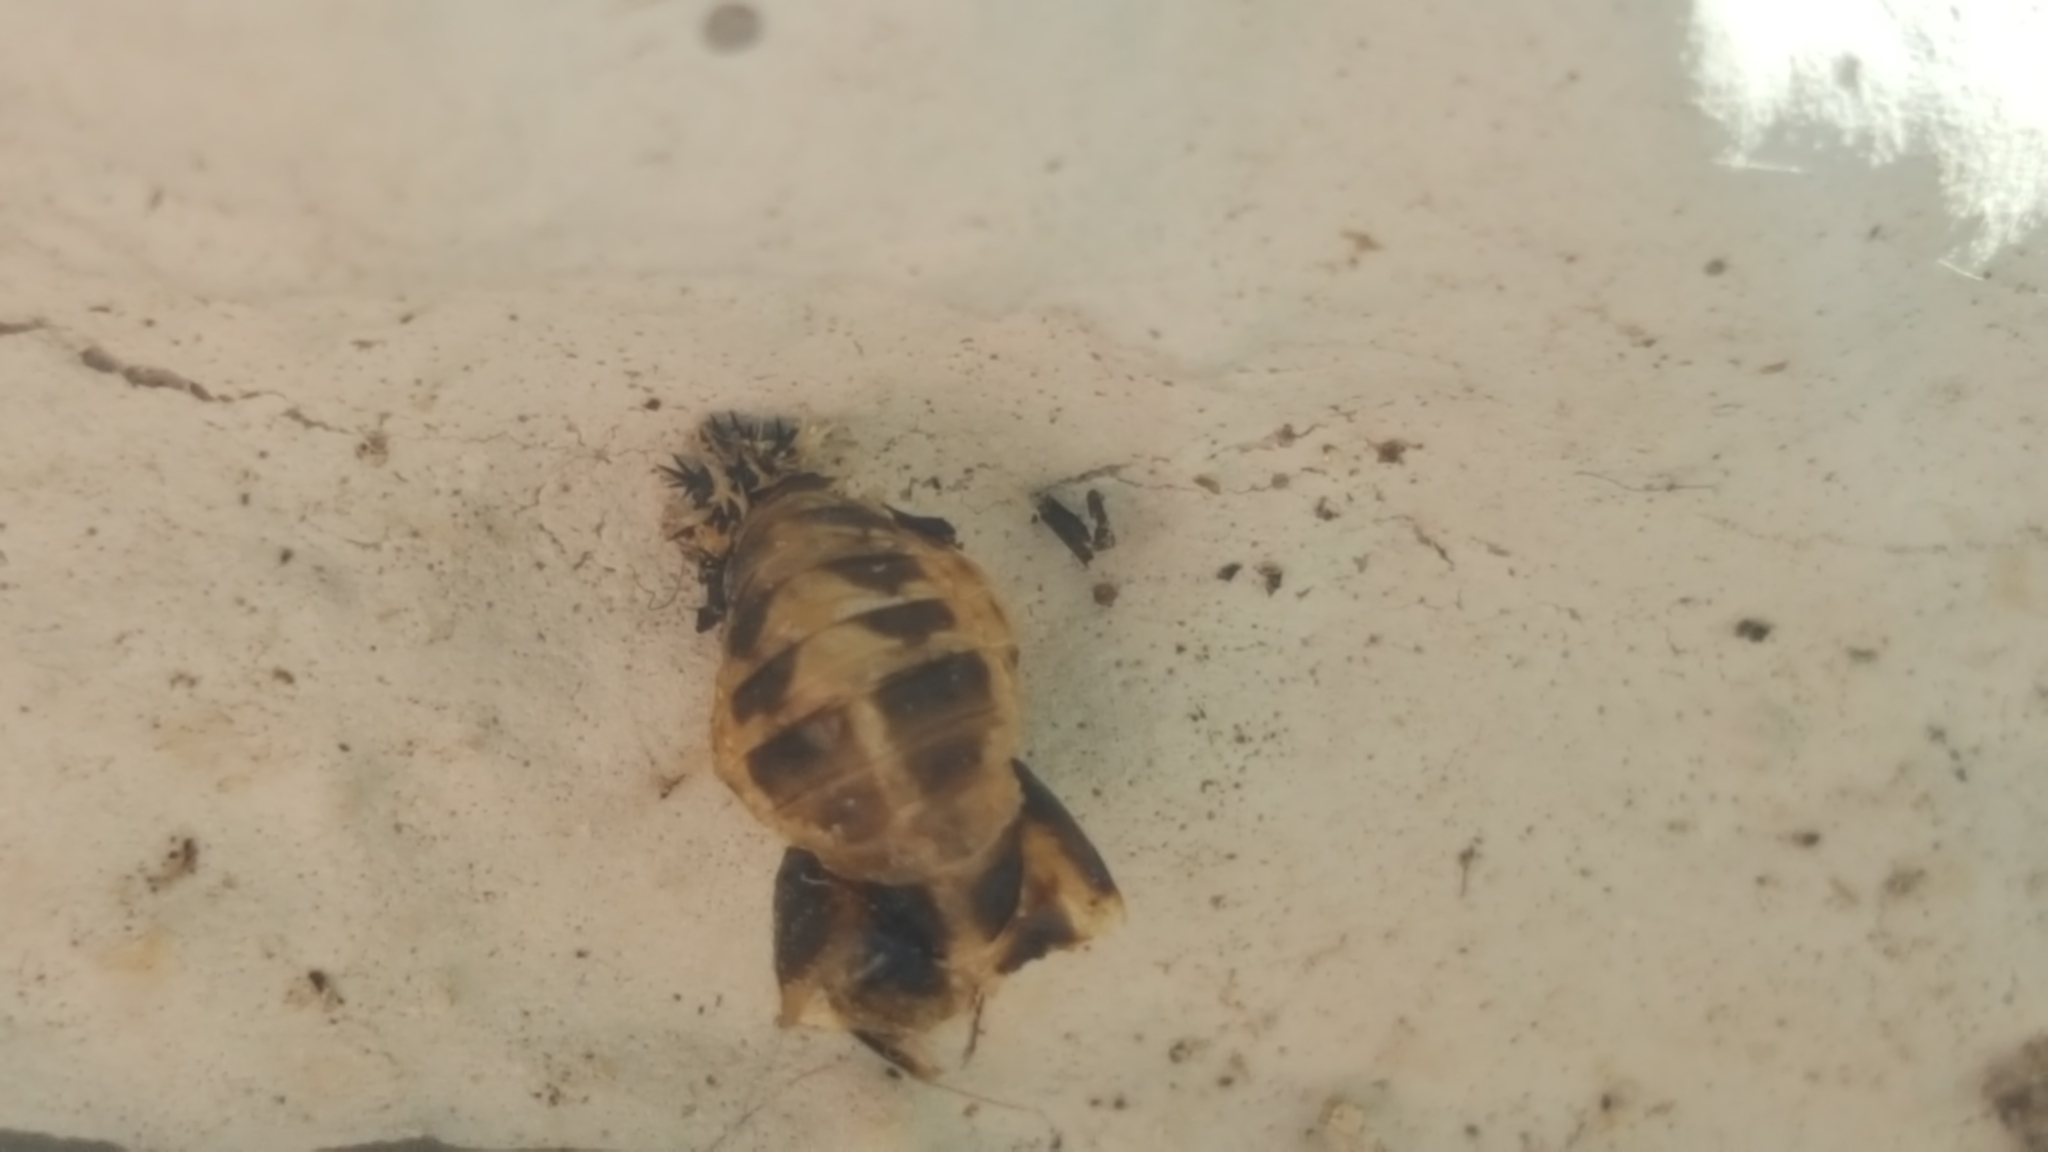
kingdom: Animalia
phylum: Arthropoda
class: Insecta
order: Coleoptera
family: Coccinellidae
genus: Harmonia
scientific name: Harmonia axyridis
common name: Harlequin ladybird
